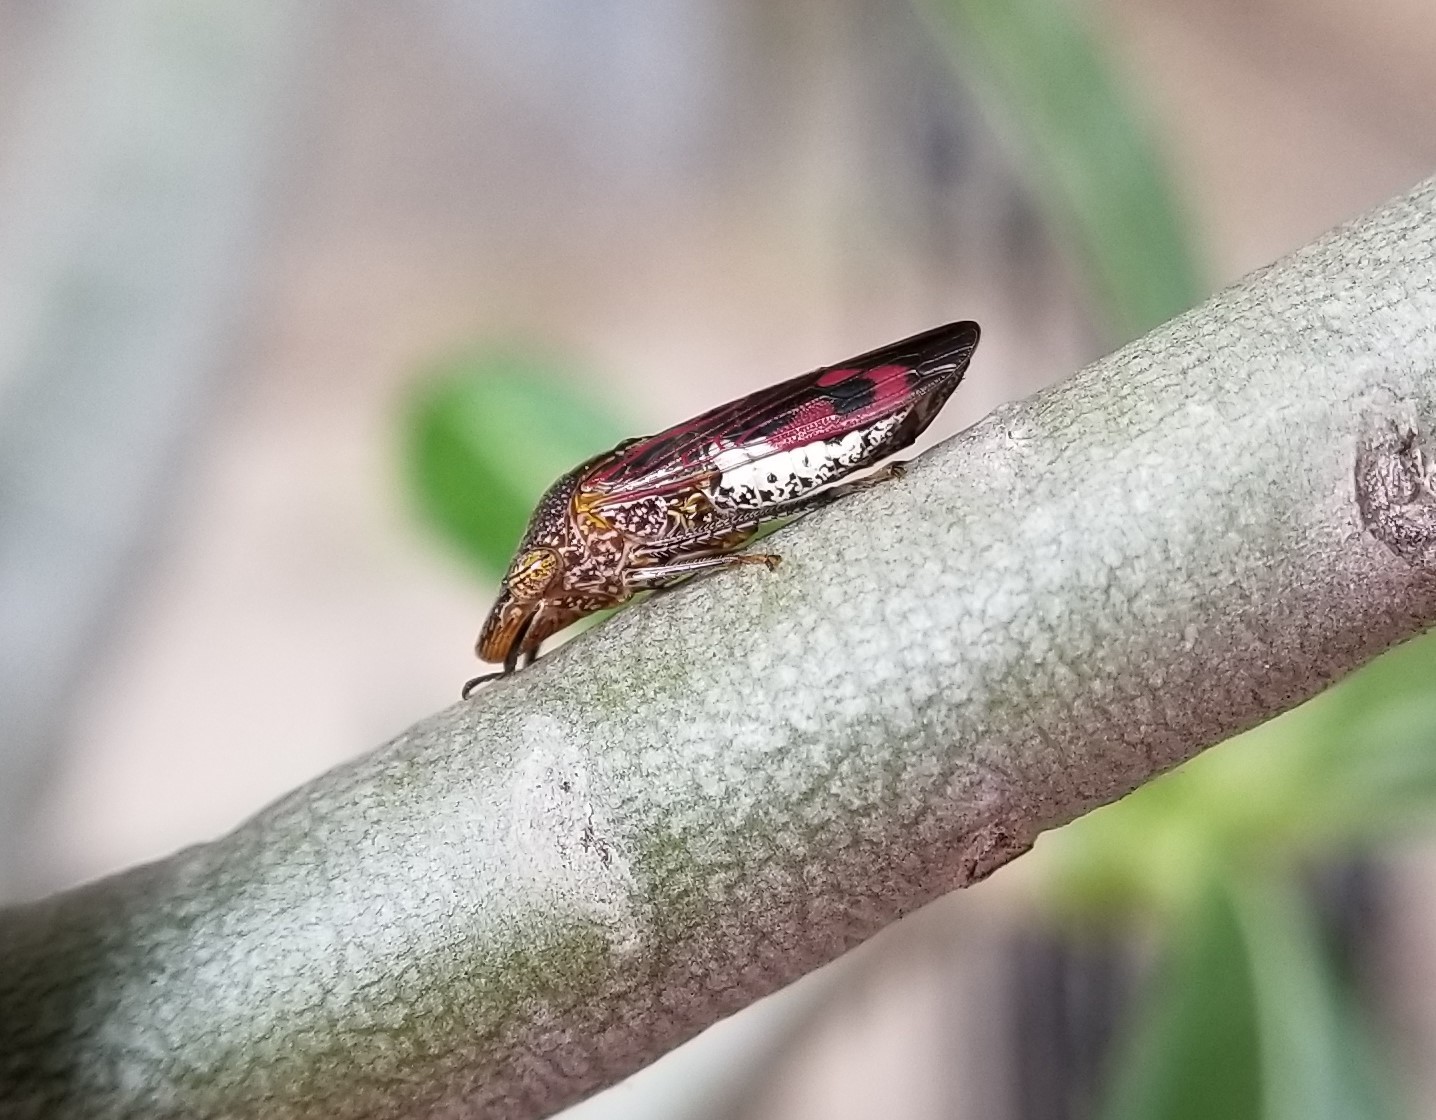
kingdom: Animalia
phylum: Arthropoda
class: Insecta
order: Hemiptera
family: Cicadellidae
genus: Homalodisca
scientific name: Homalodisca vitripennis
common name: Glassy-winged sharpshooter
